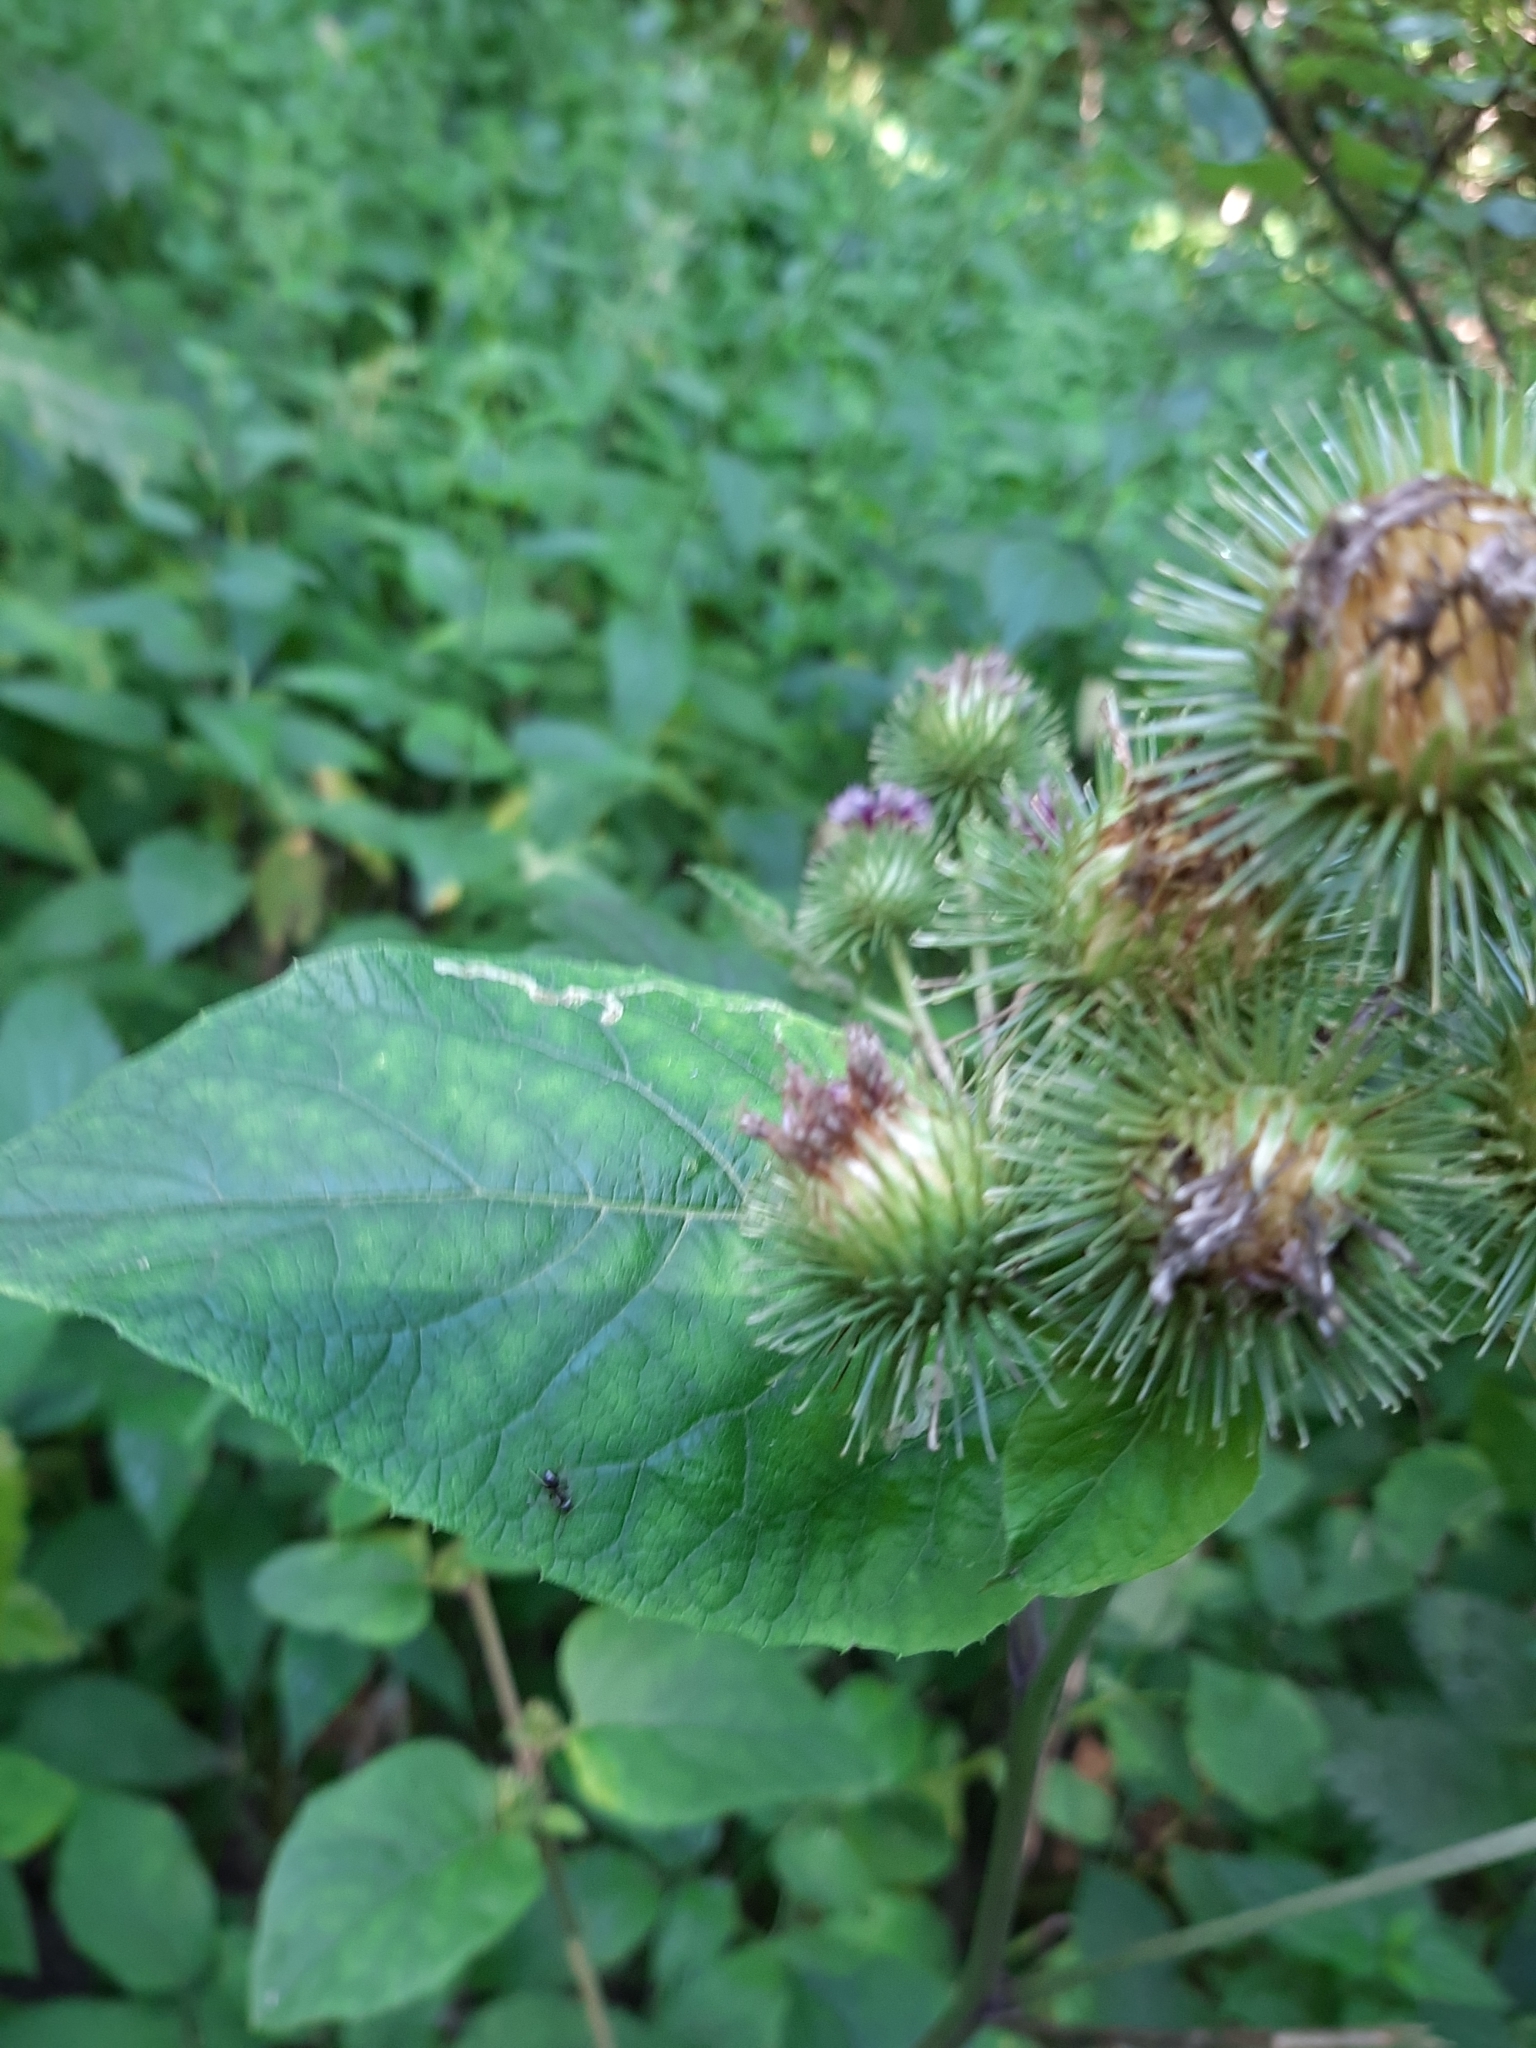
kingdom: Plantae
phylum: Tracheophyta
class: Magnoliopsida
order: Asterales
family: Asteraceae
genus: Arctium
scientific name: Arctium lappa
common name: Greater burdock
